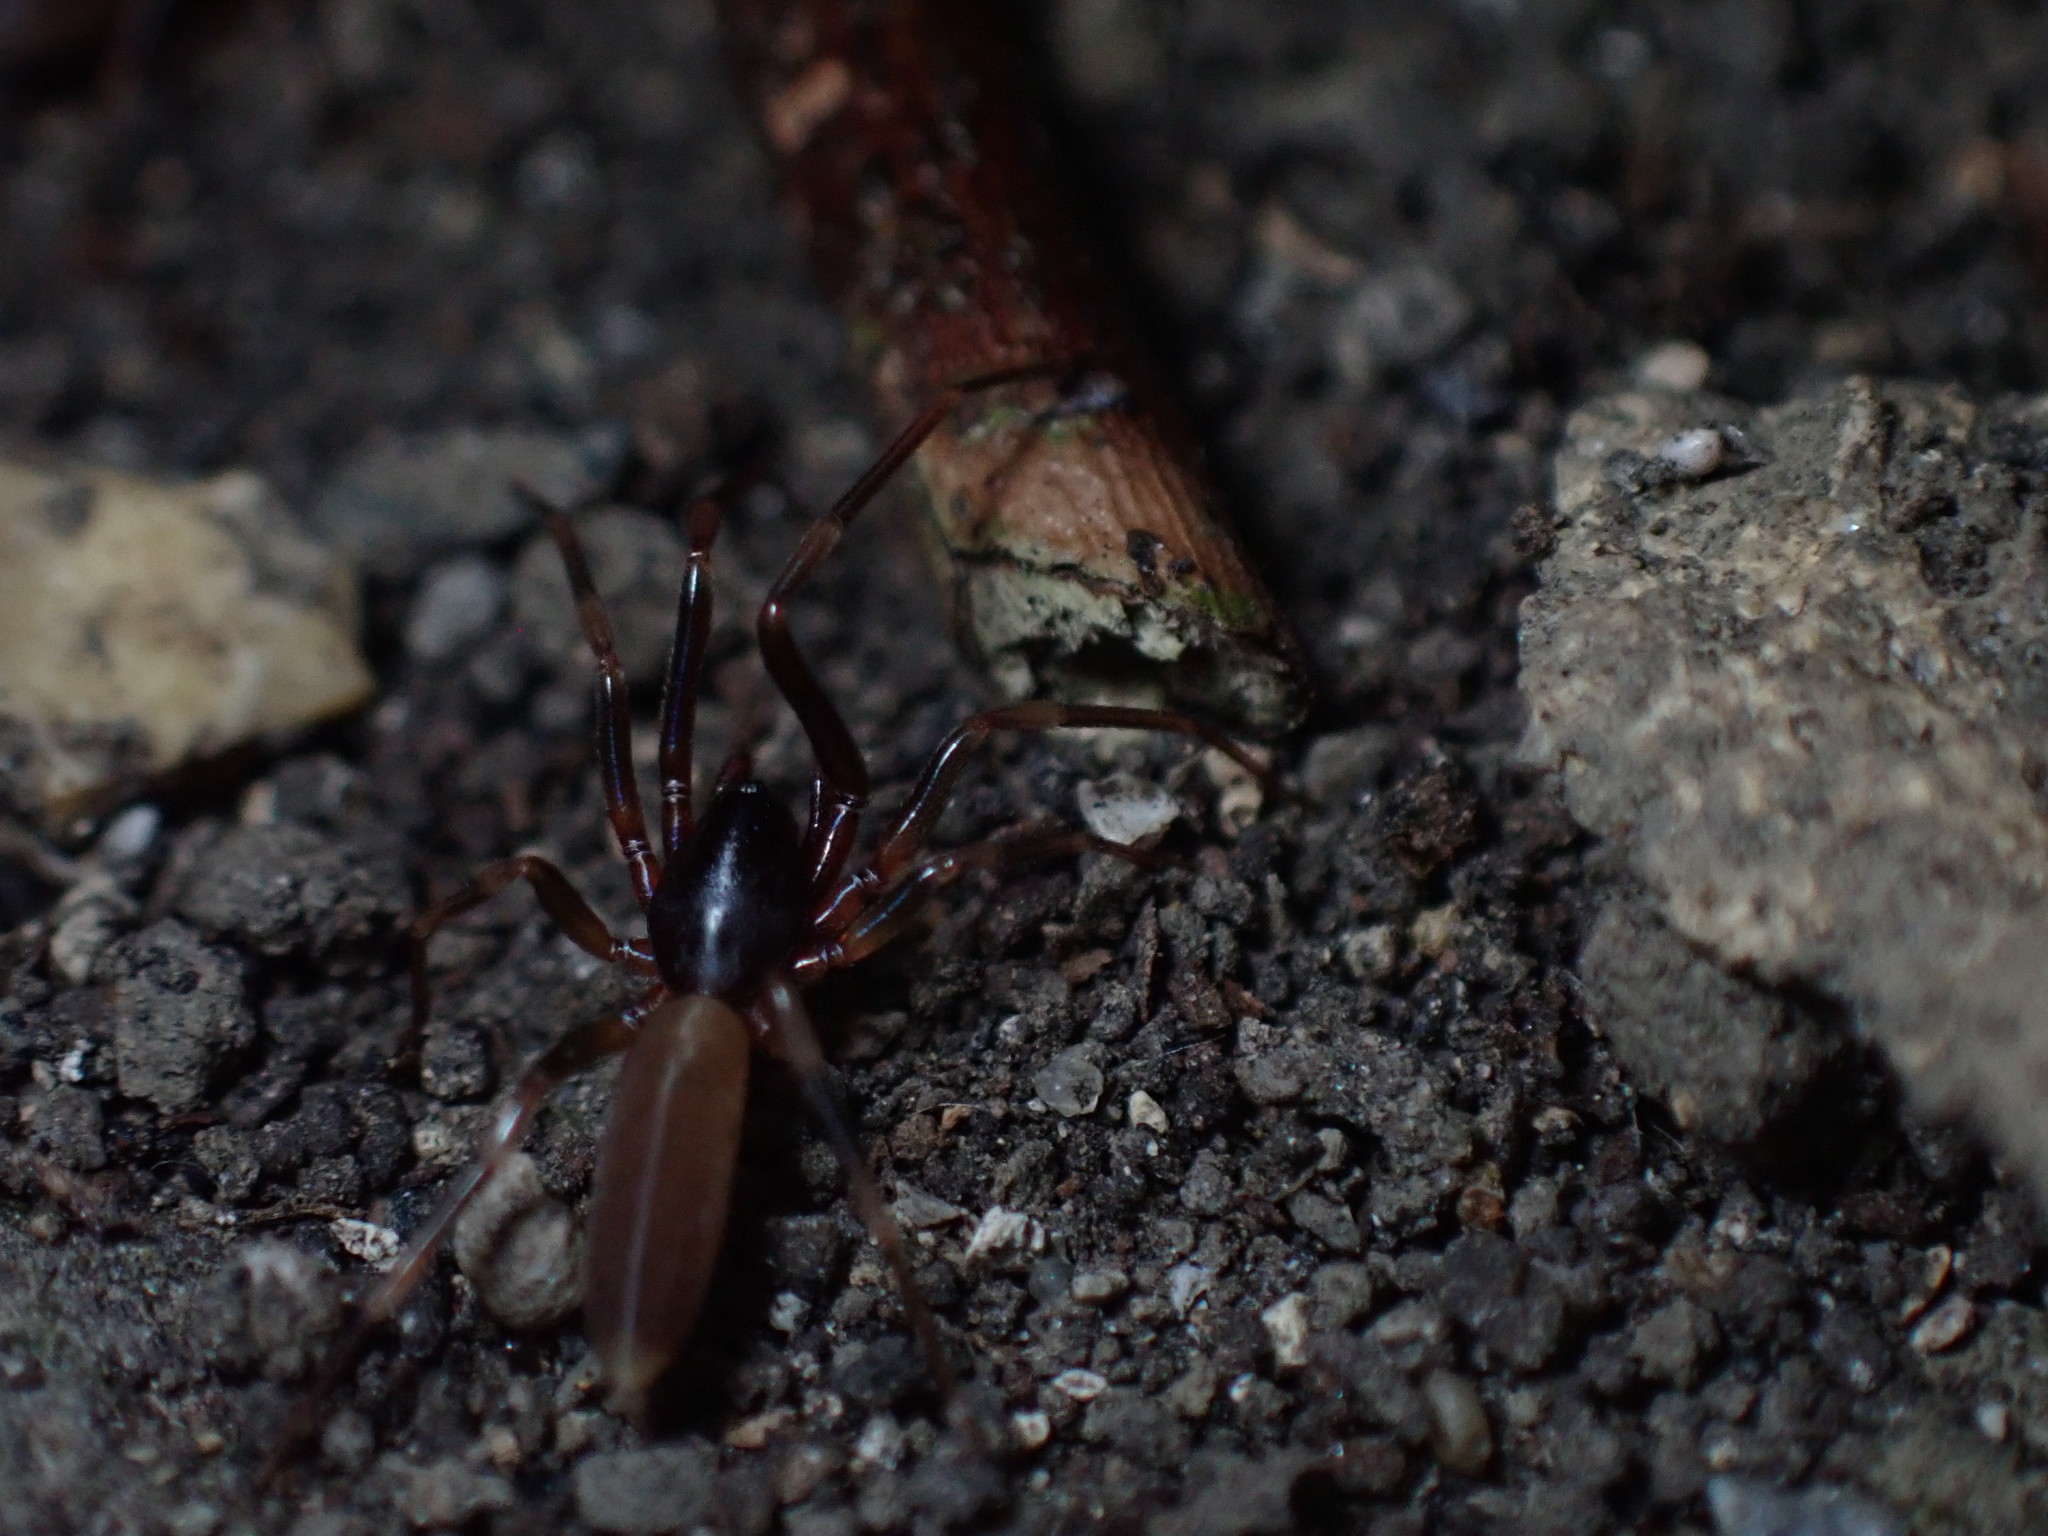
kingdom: Animalia
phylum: Arthropoda
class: Arachnida
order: Araneae
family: Dysderidae
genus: Harpactea
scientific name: Harpactea hombergi
